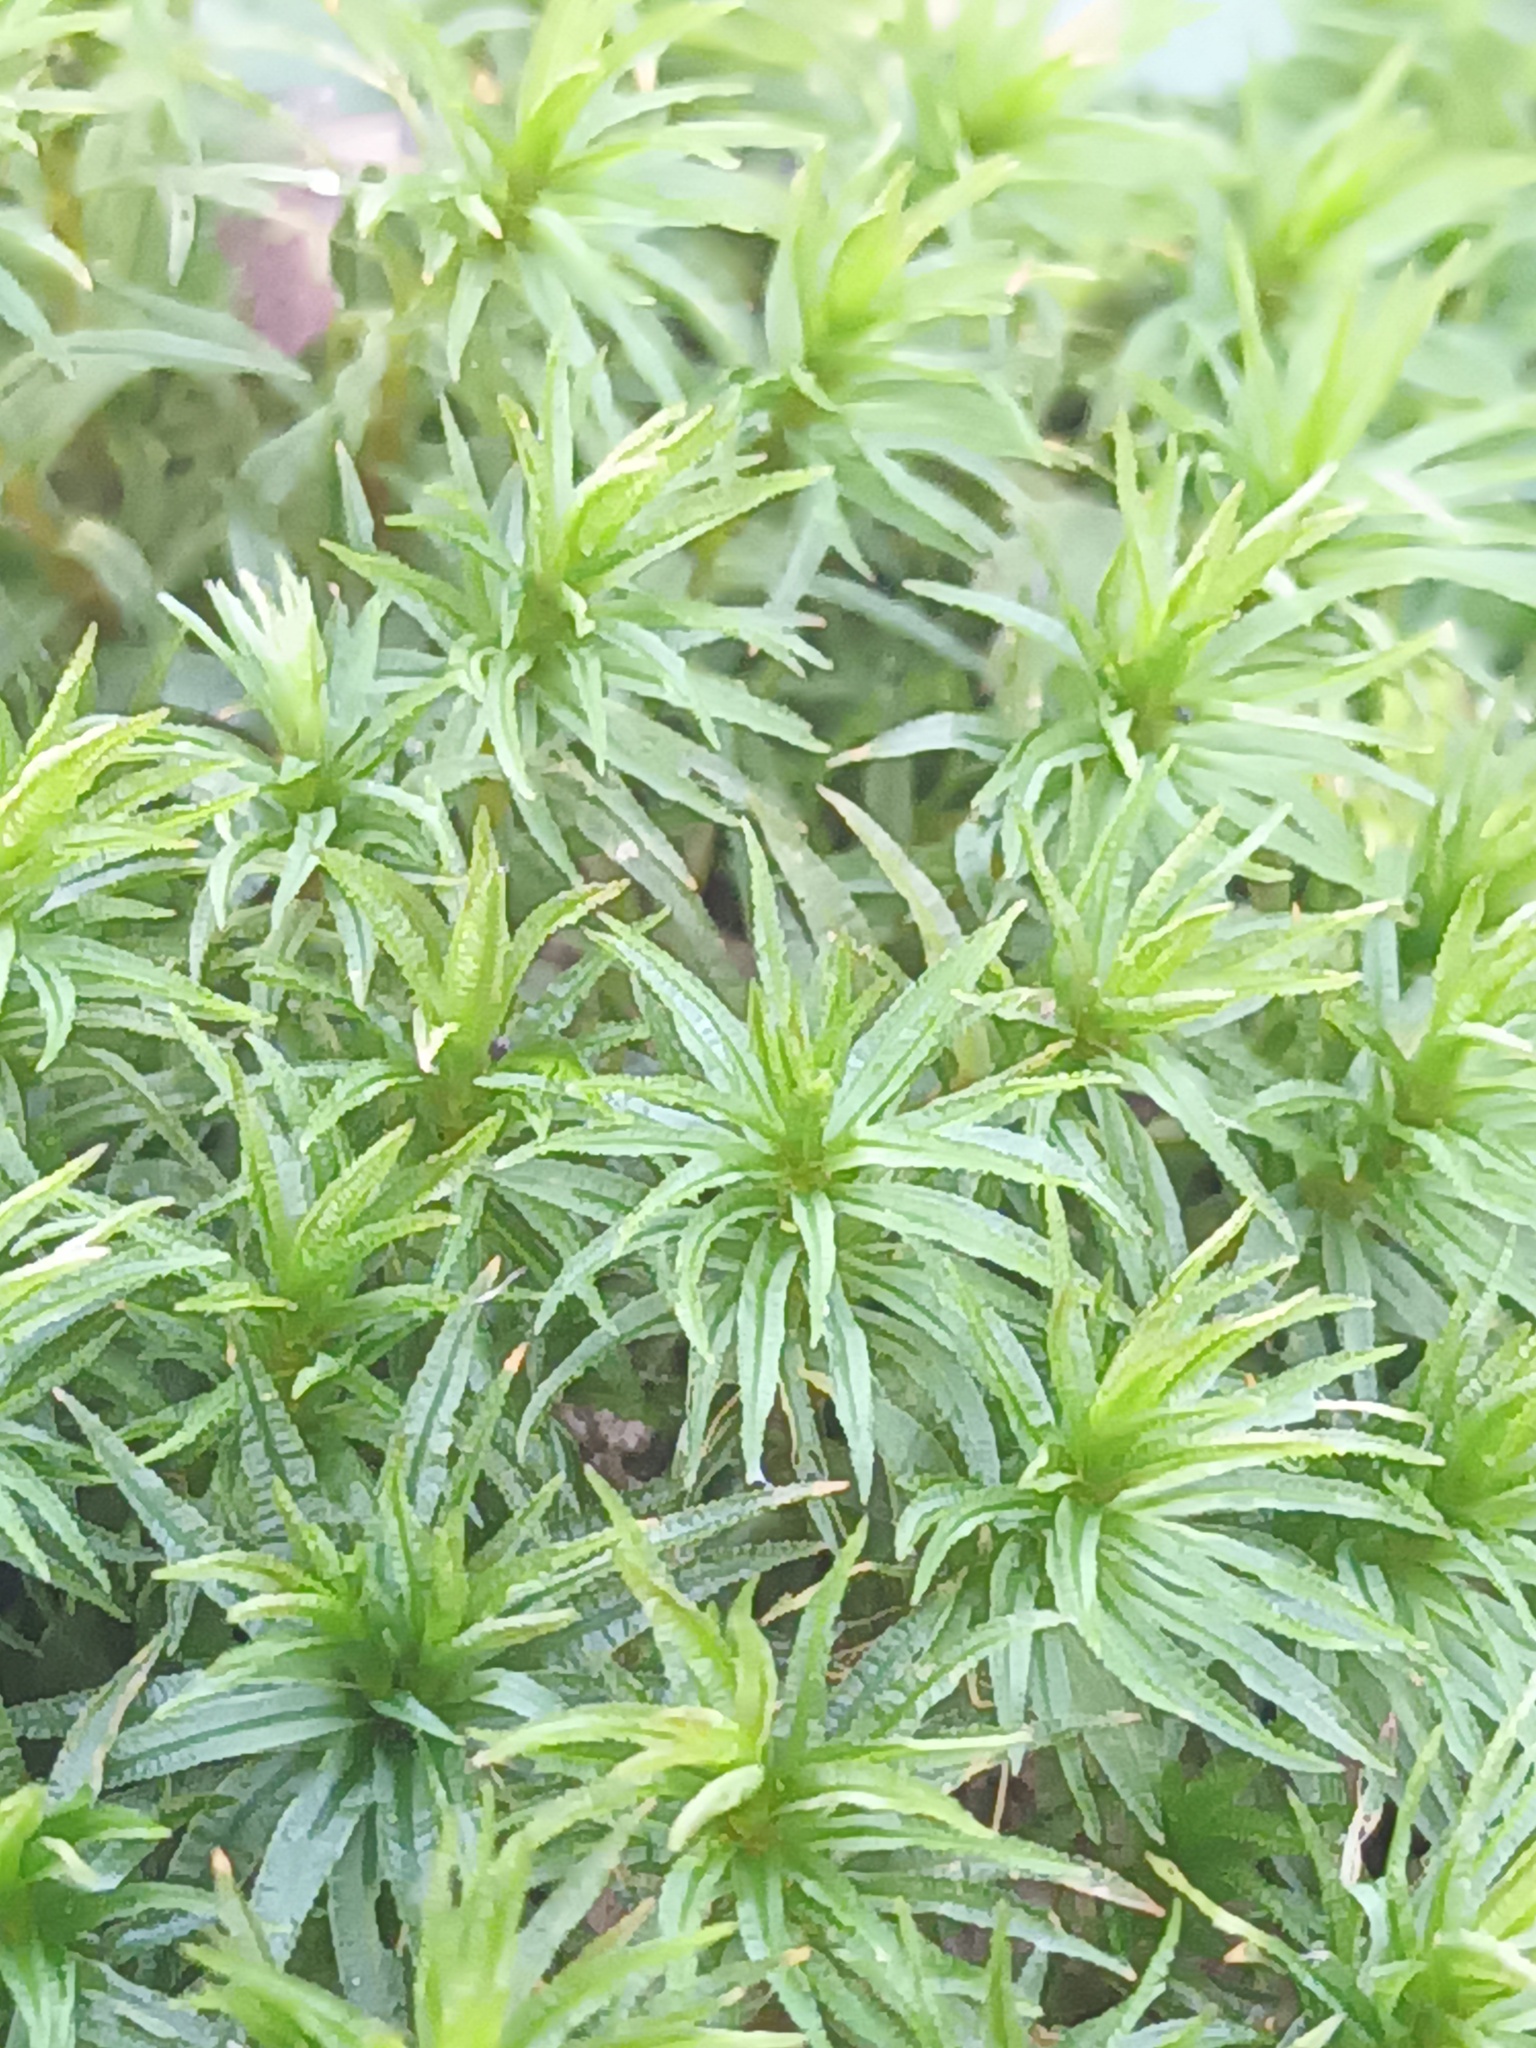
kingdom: Plantae
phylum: Bryophyta
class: Polytrichopsida
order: Polytrichales
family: Polytrichaceae
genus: Atrichum
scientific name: Atrichum undulatum
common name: Common smoothcap
